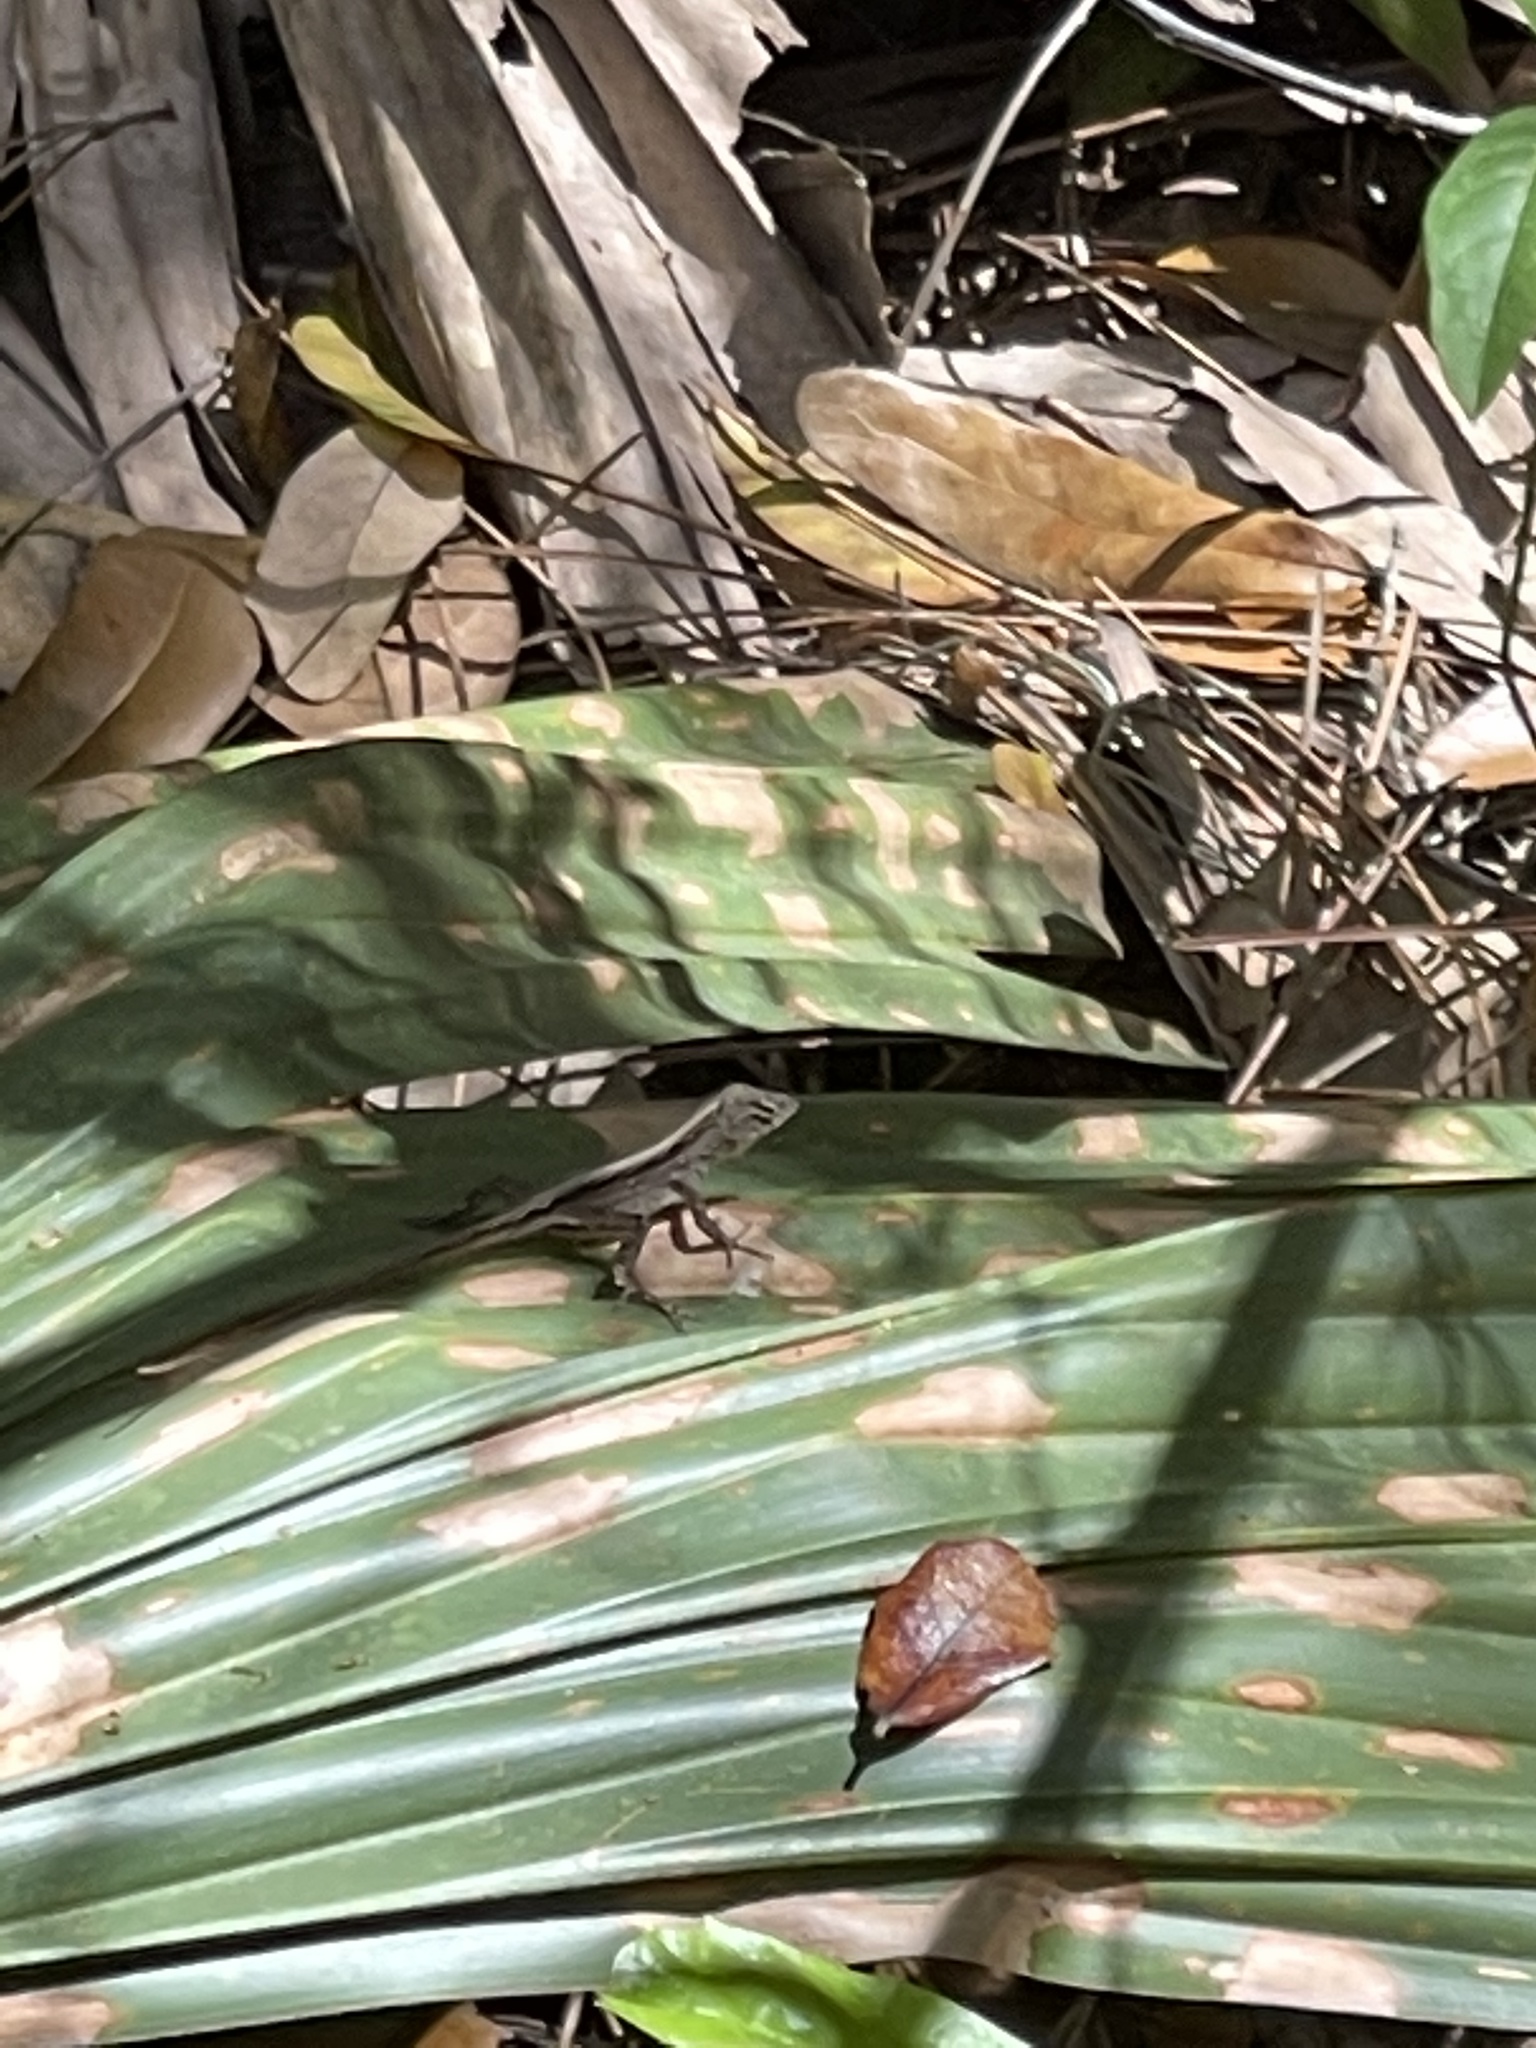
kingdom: Animalia
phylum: Chordata
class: Squamata
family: Dactyloidae
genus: Anolis
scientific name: Anolis sagrei
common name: Brown anole
